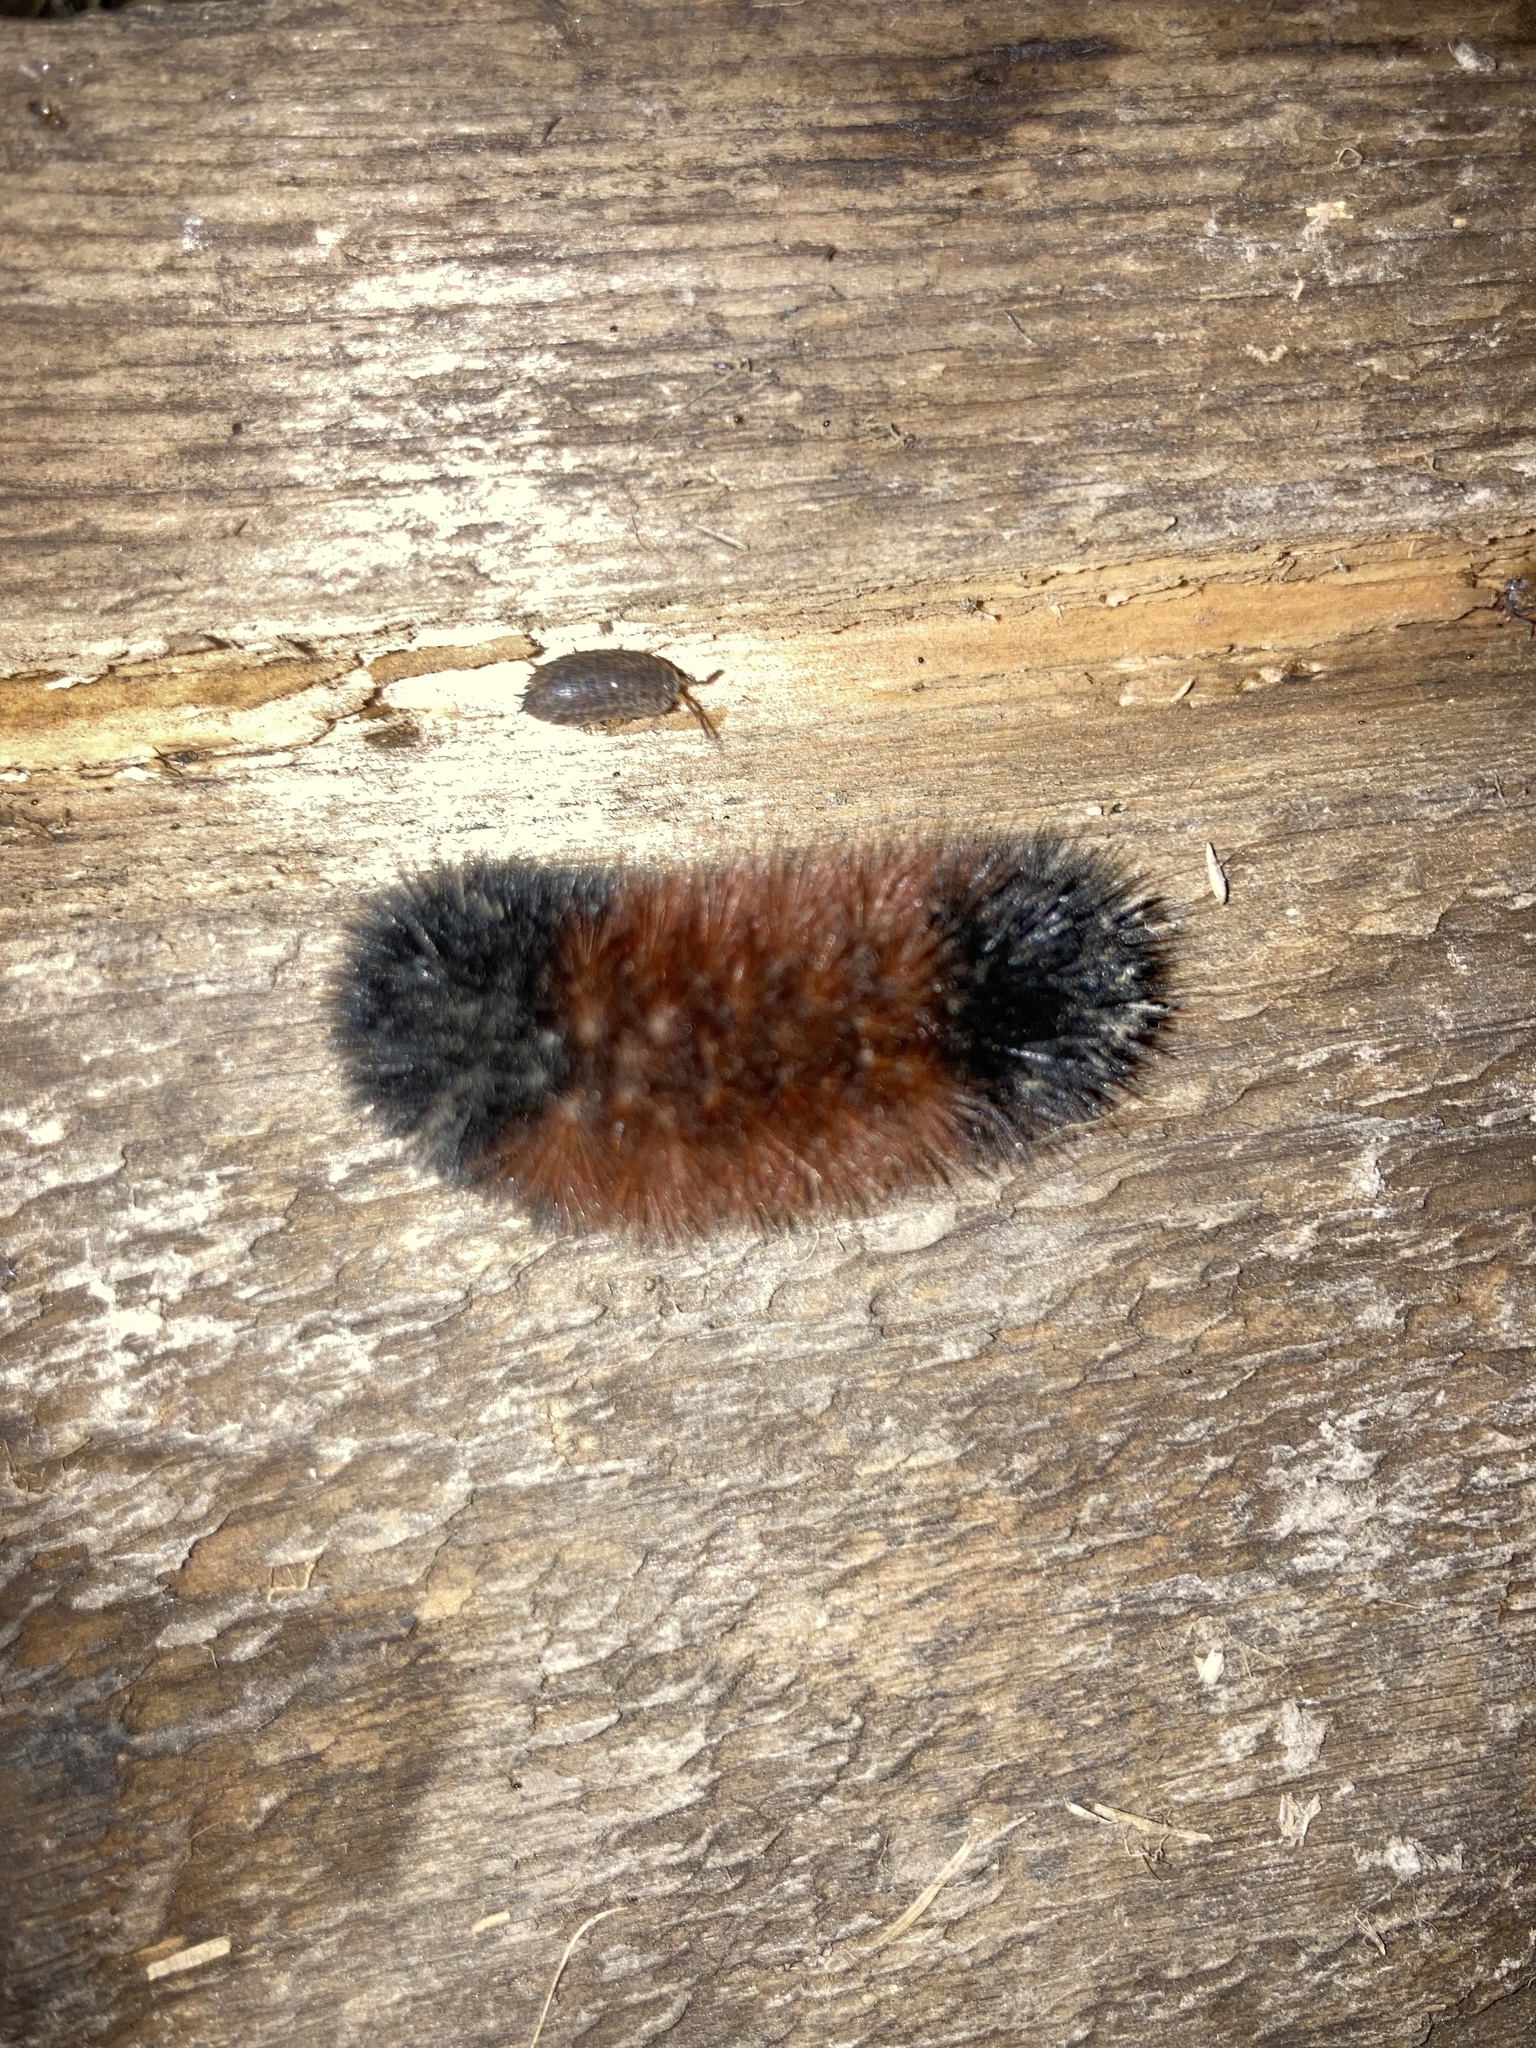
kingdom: Animalia
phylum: Arthropoda
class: Insecta
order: Lepidoptera
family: Erebidae
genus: Pyrrharctia
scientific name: Pyrrharctia isabella
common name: Isabella tiger moth
